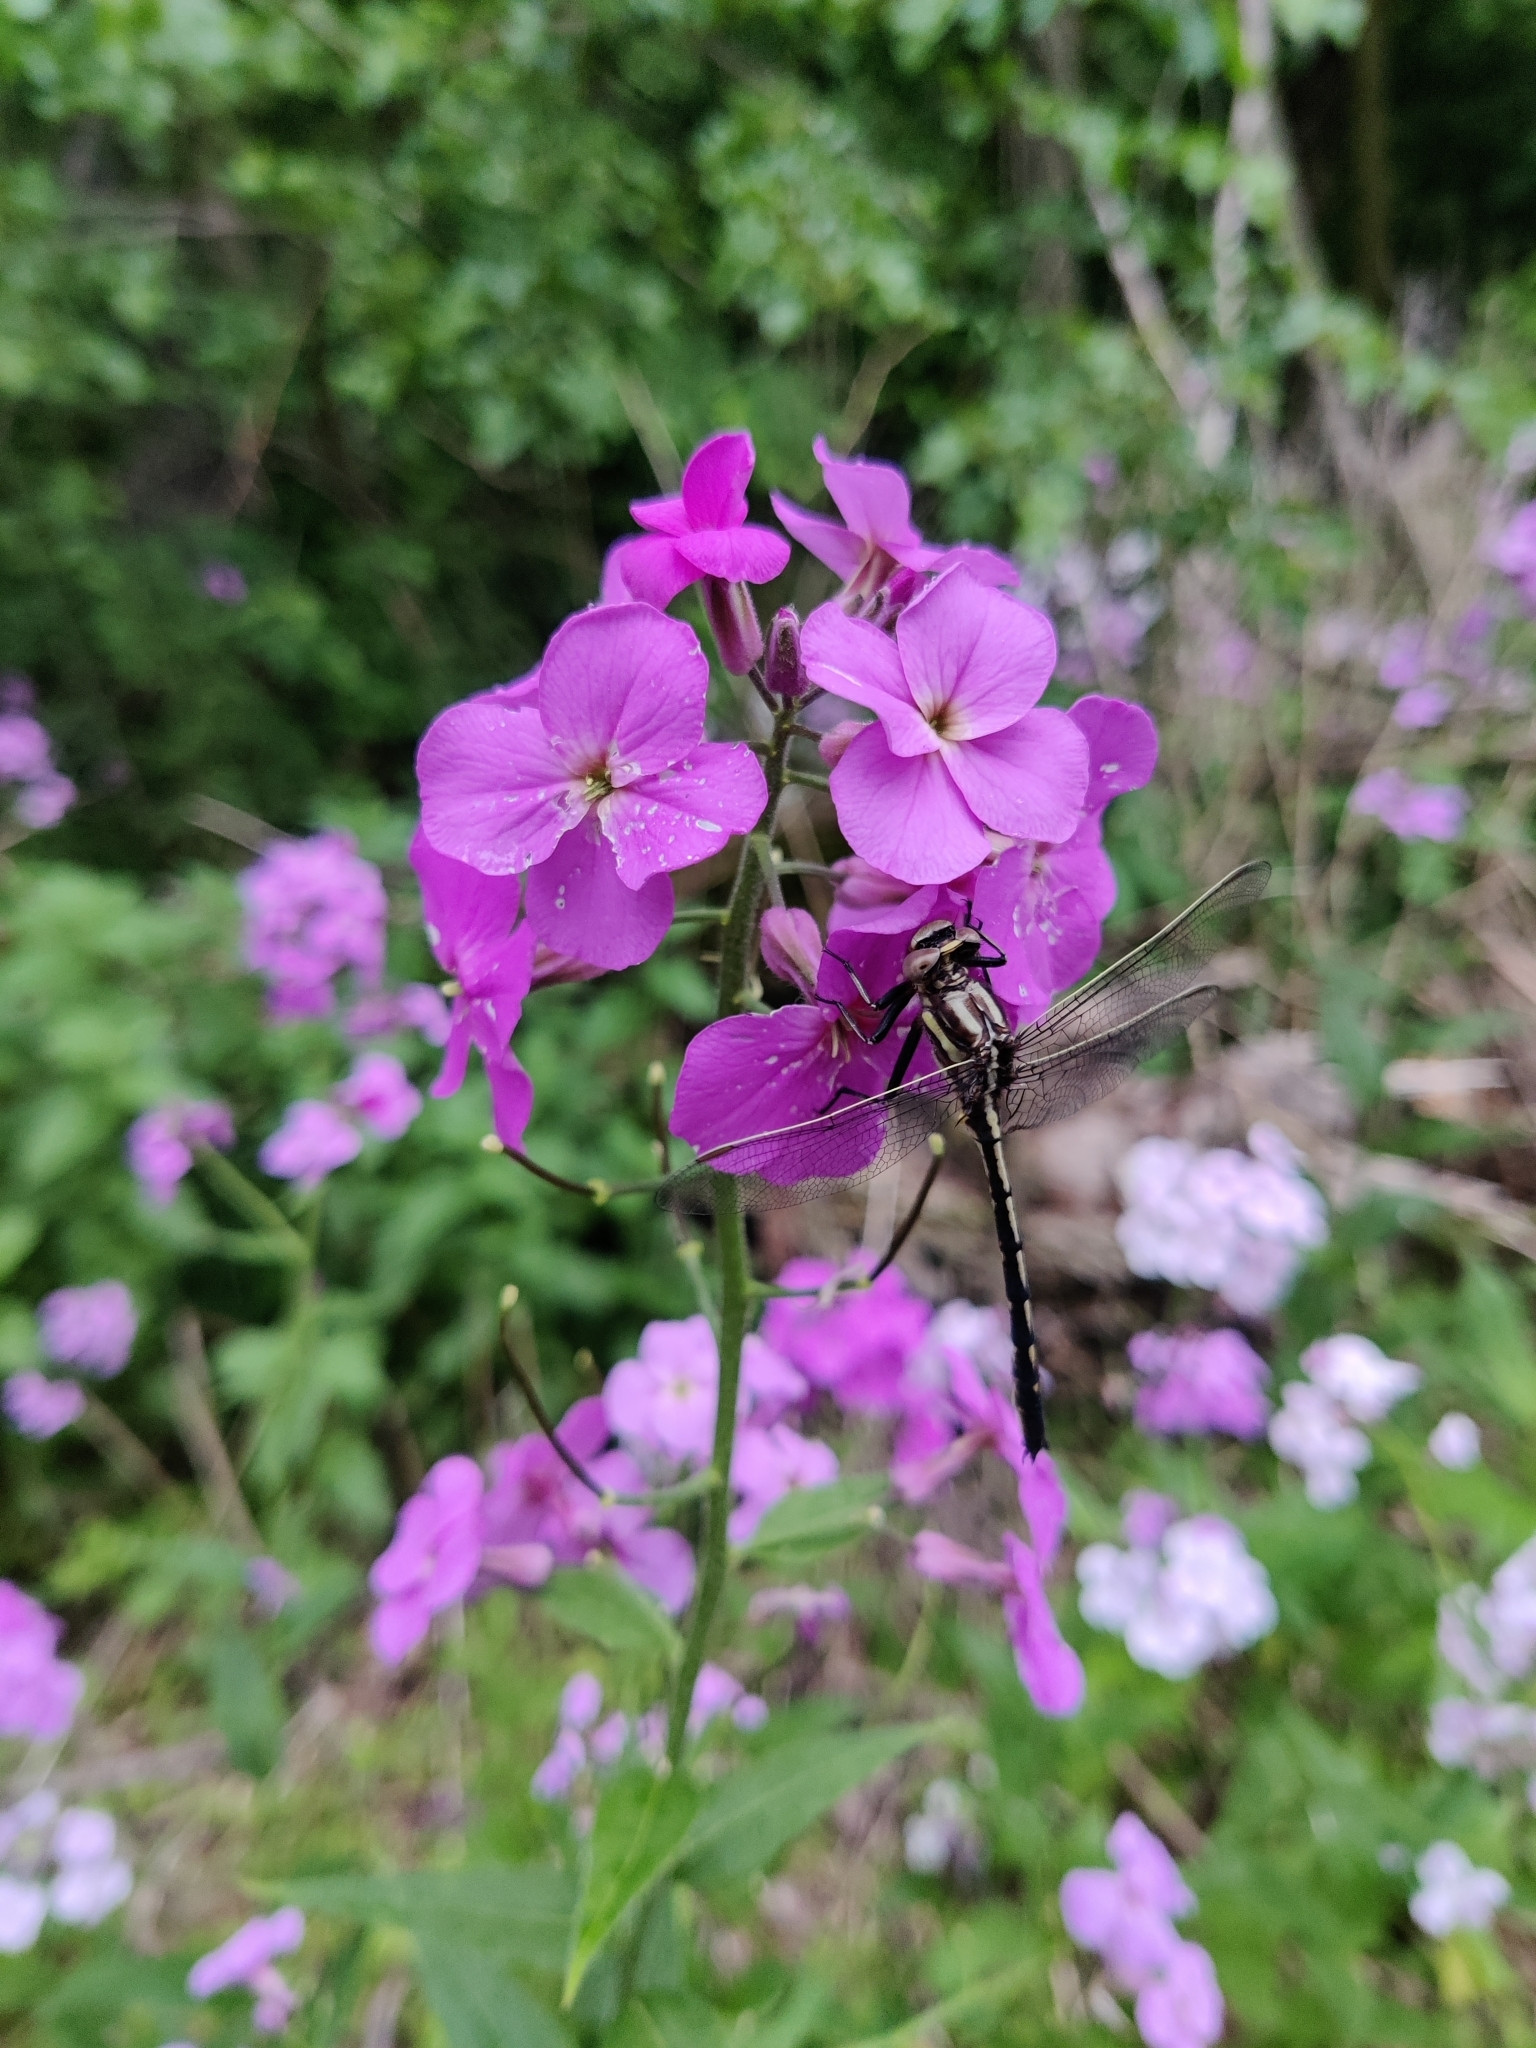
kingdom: Plantae
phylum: Tracheophyta
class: Magnoliopsida
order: Brassicales
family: Brassicaceae
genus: Hesperis
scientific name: Hesperis matronalis
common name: Dame's-violet
